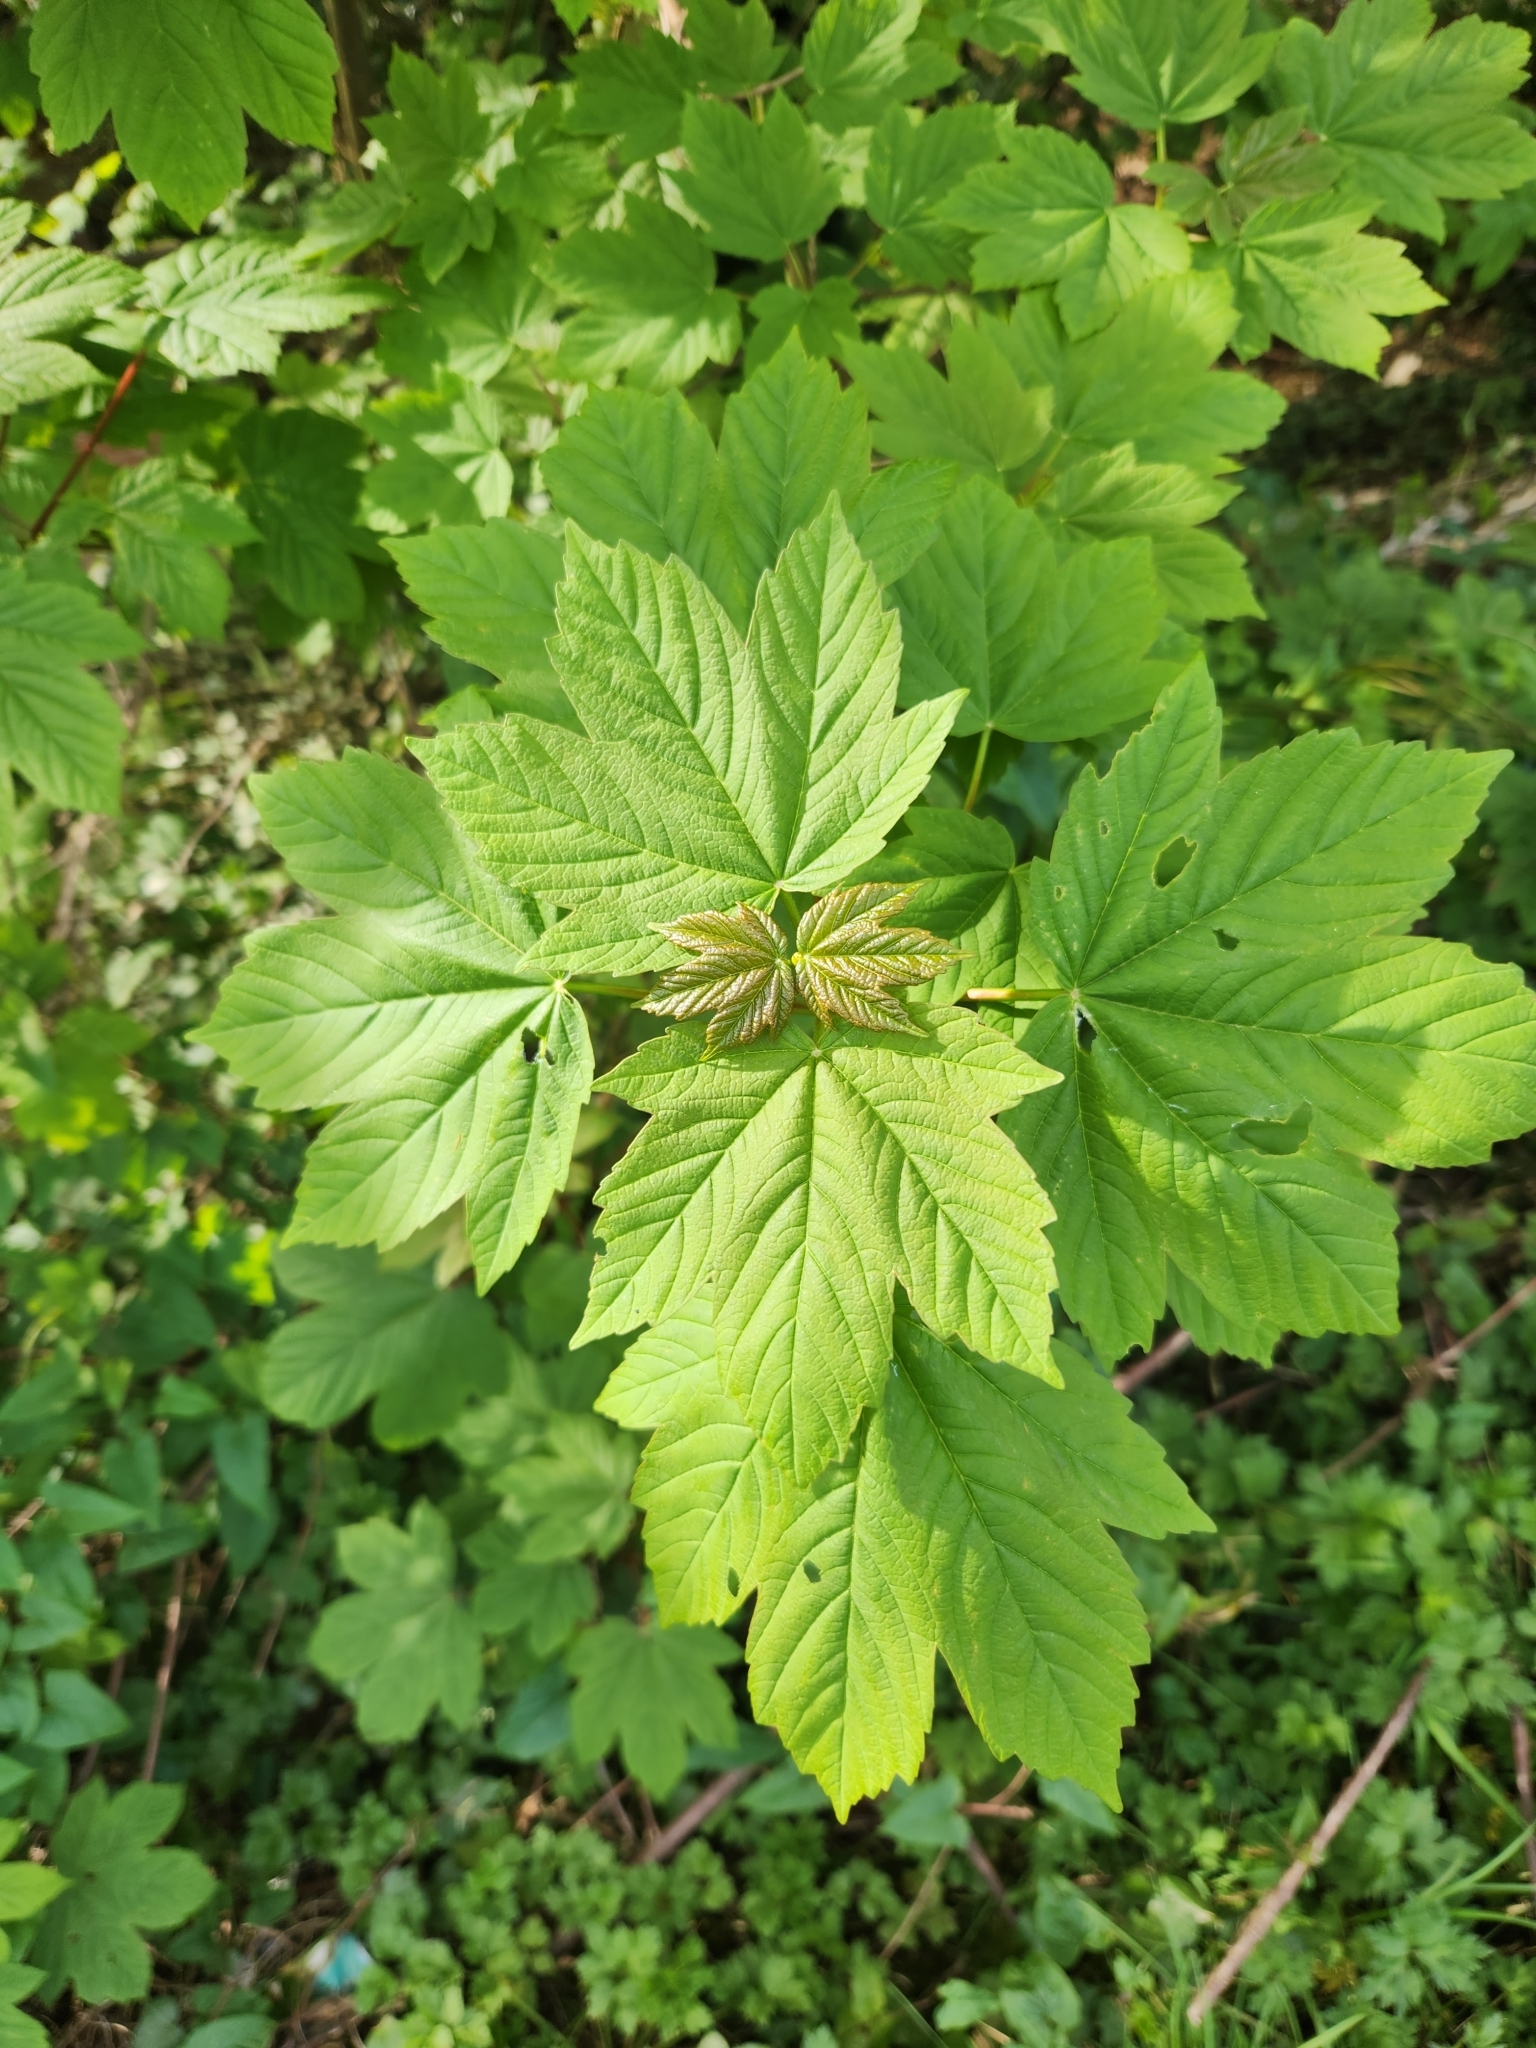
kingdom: Plantae
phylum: Tracheophyta
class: Magnoliopsida
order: Sapindales
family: Sapindaceae
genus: Acer
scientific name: Acer pseudoplatanus
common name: Sycamore
